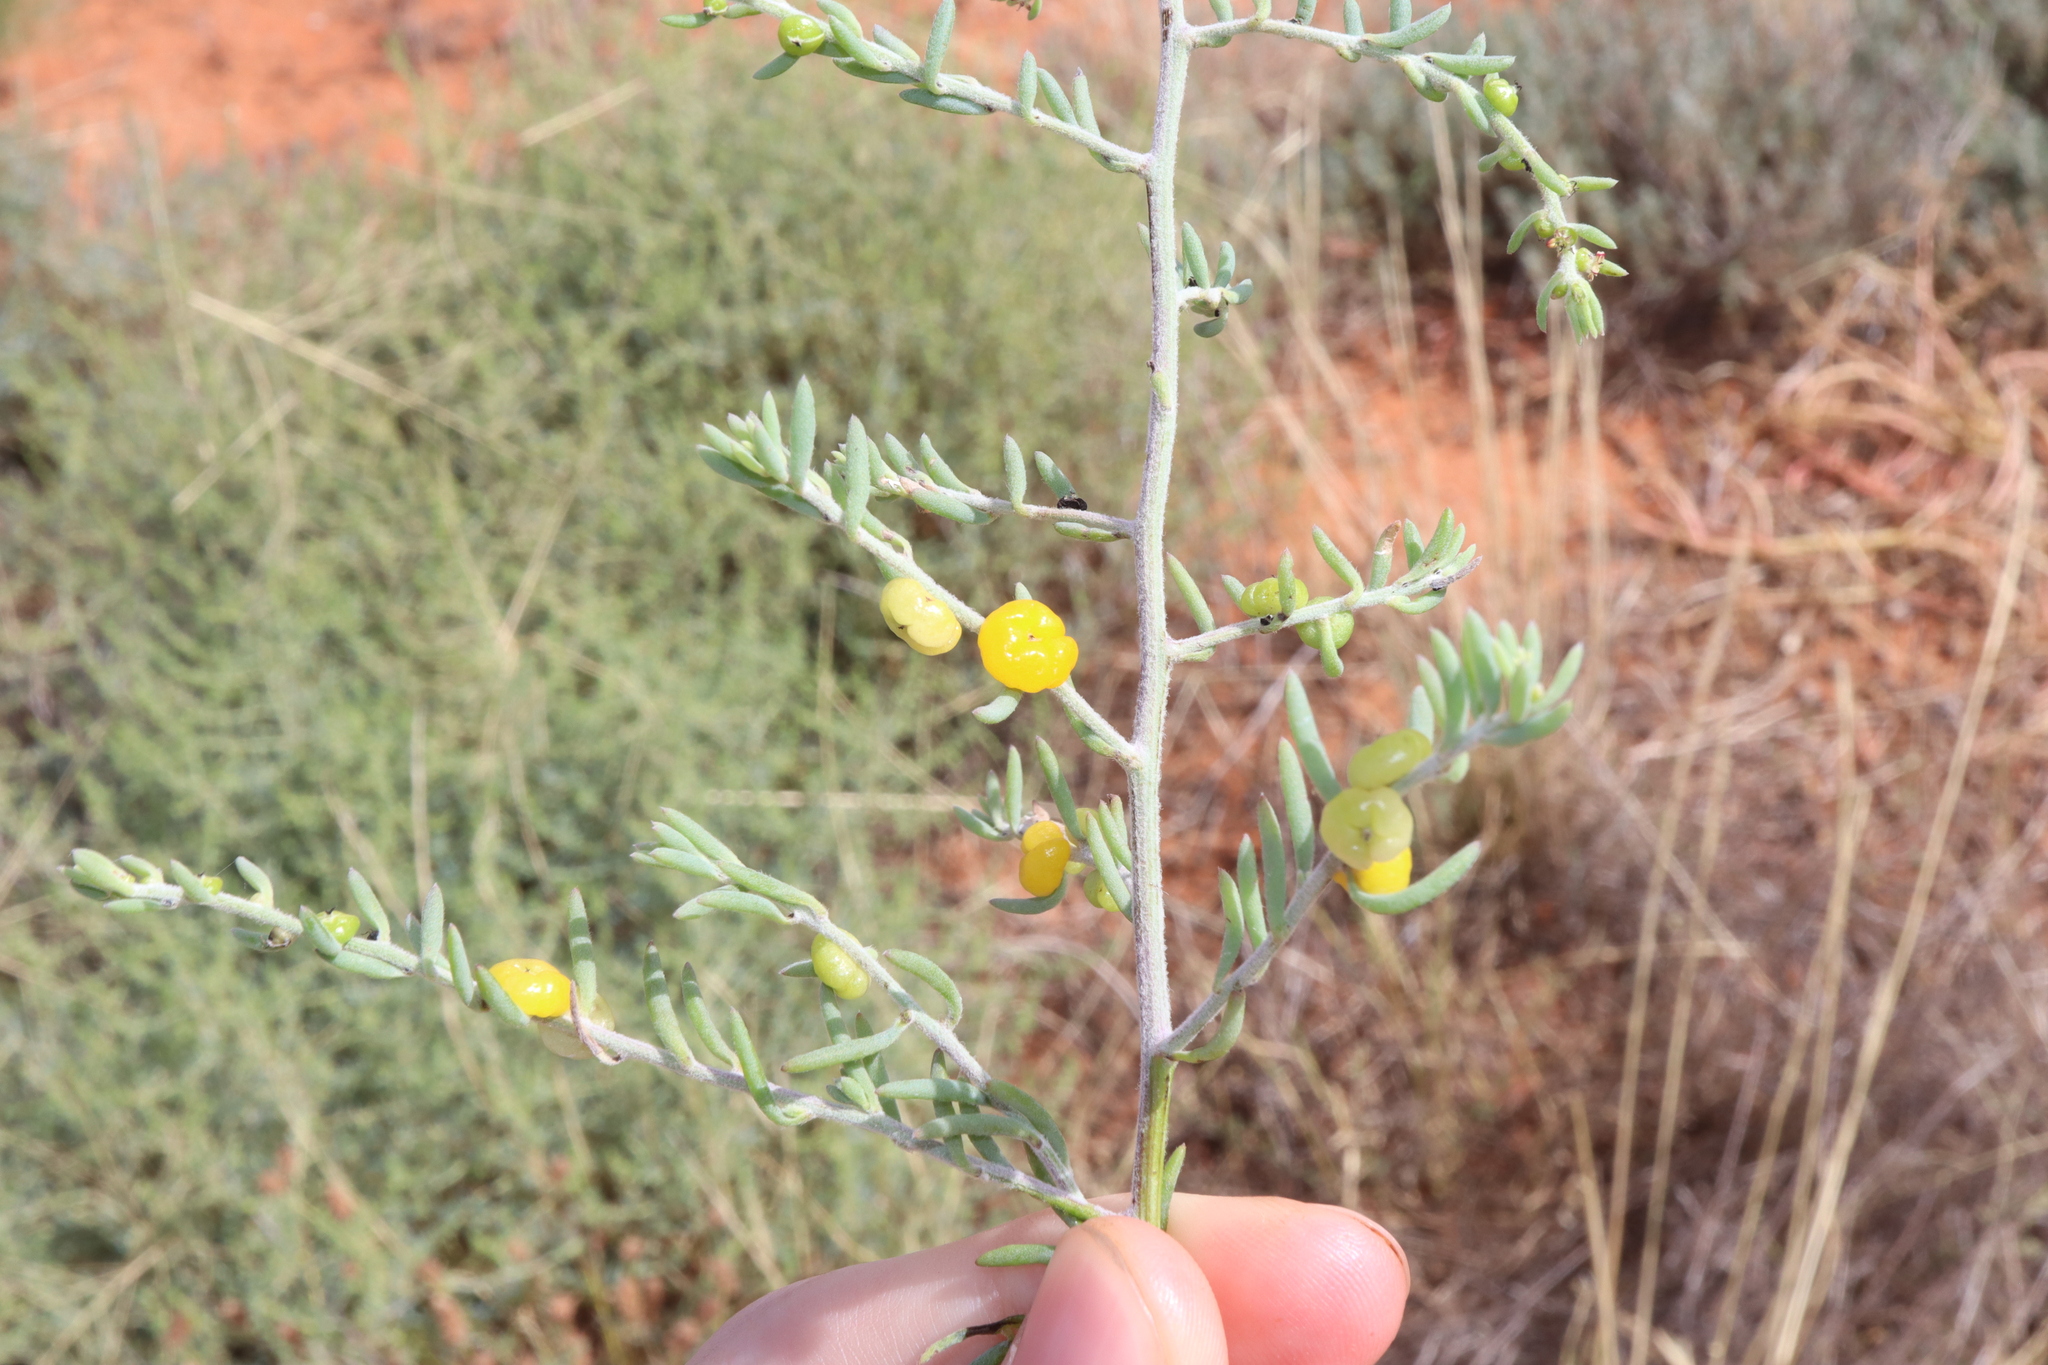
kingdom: Plantae
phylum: Tracheophyta
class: Magnoliopsida
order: Caryophyllales
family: Amaranthaceae
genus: Enchylaena
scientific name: Enchylaena tomentosa
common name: Ruby saltbush
